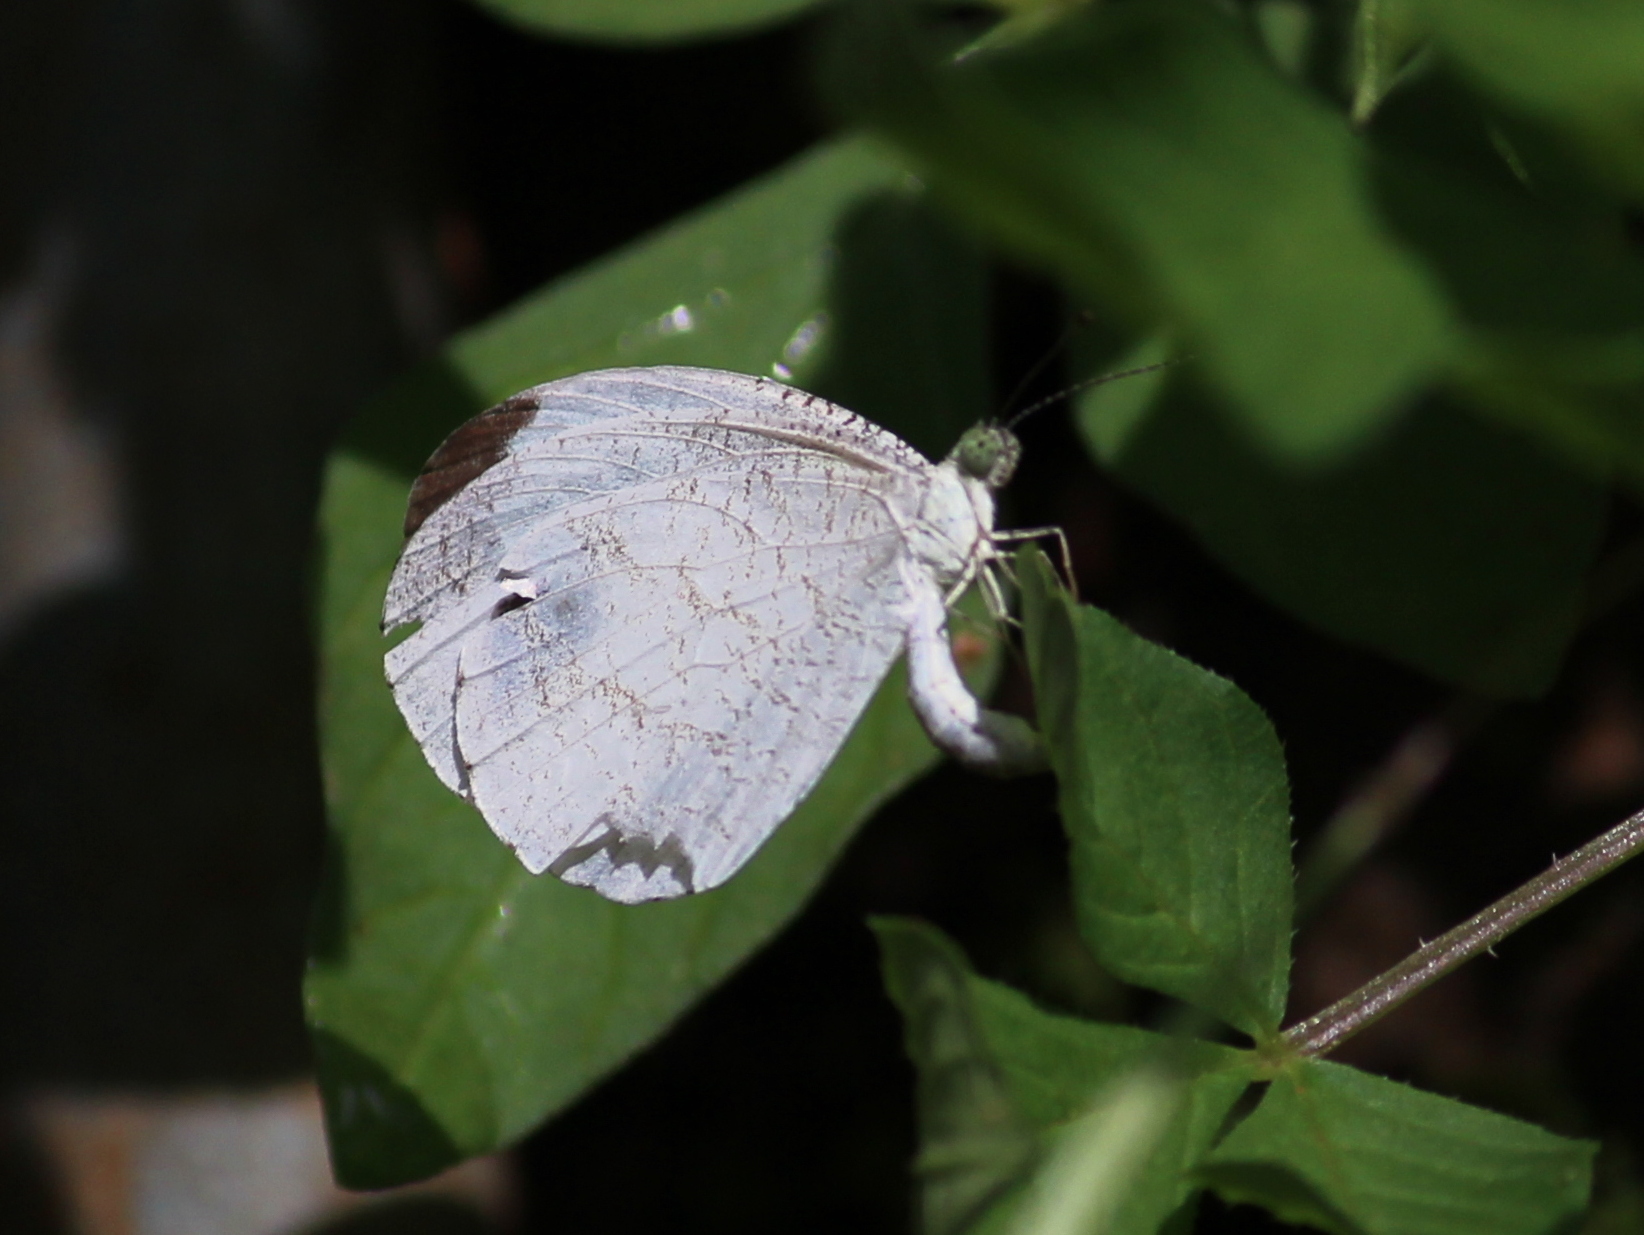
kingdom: Animalia
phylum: Arthropoda
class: Insecta
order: Lepidoptera
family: Pieridae
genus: Leptosia
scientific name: Leptosia nina
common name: Psyche
